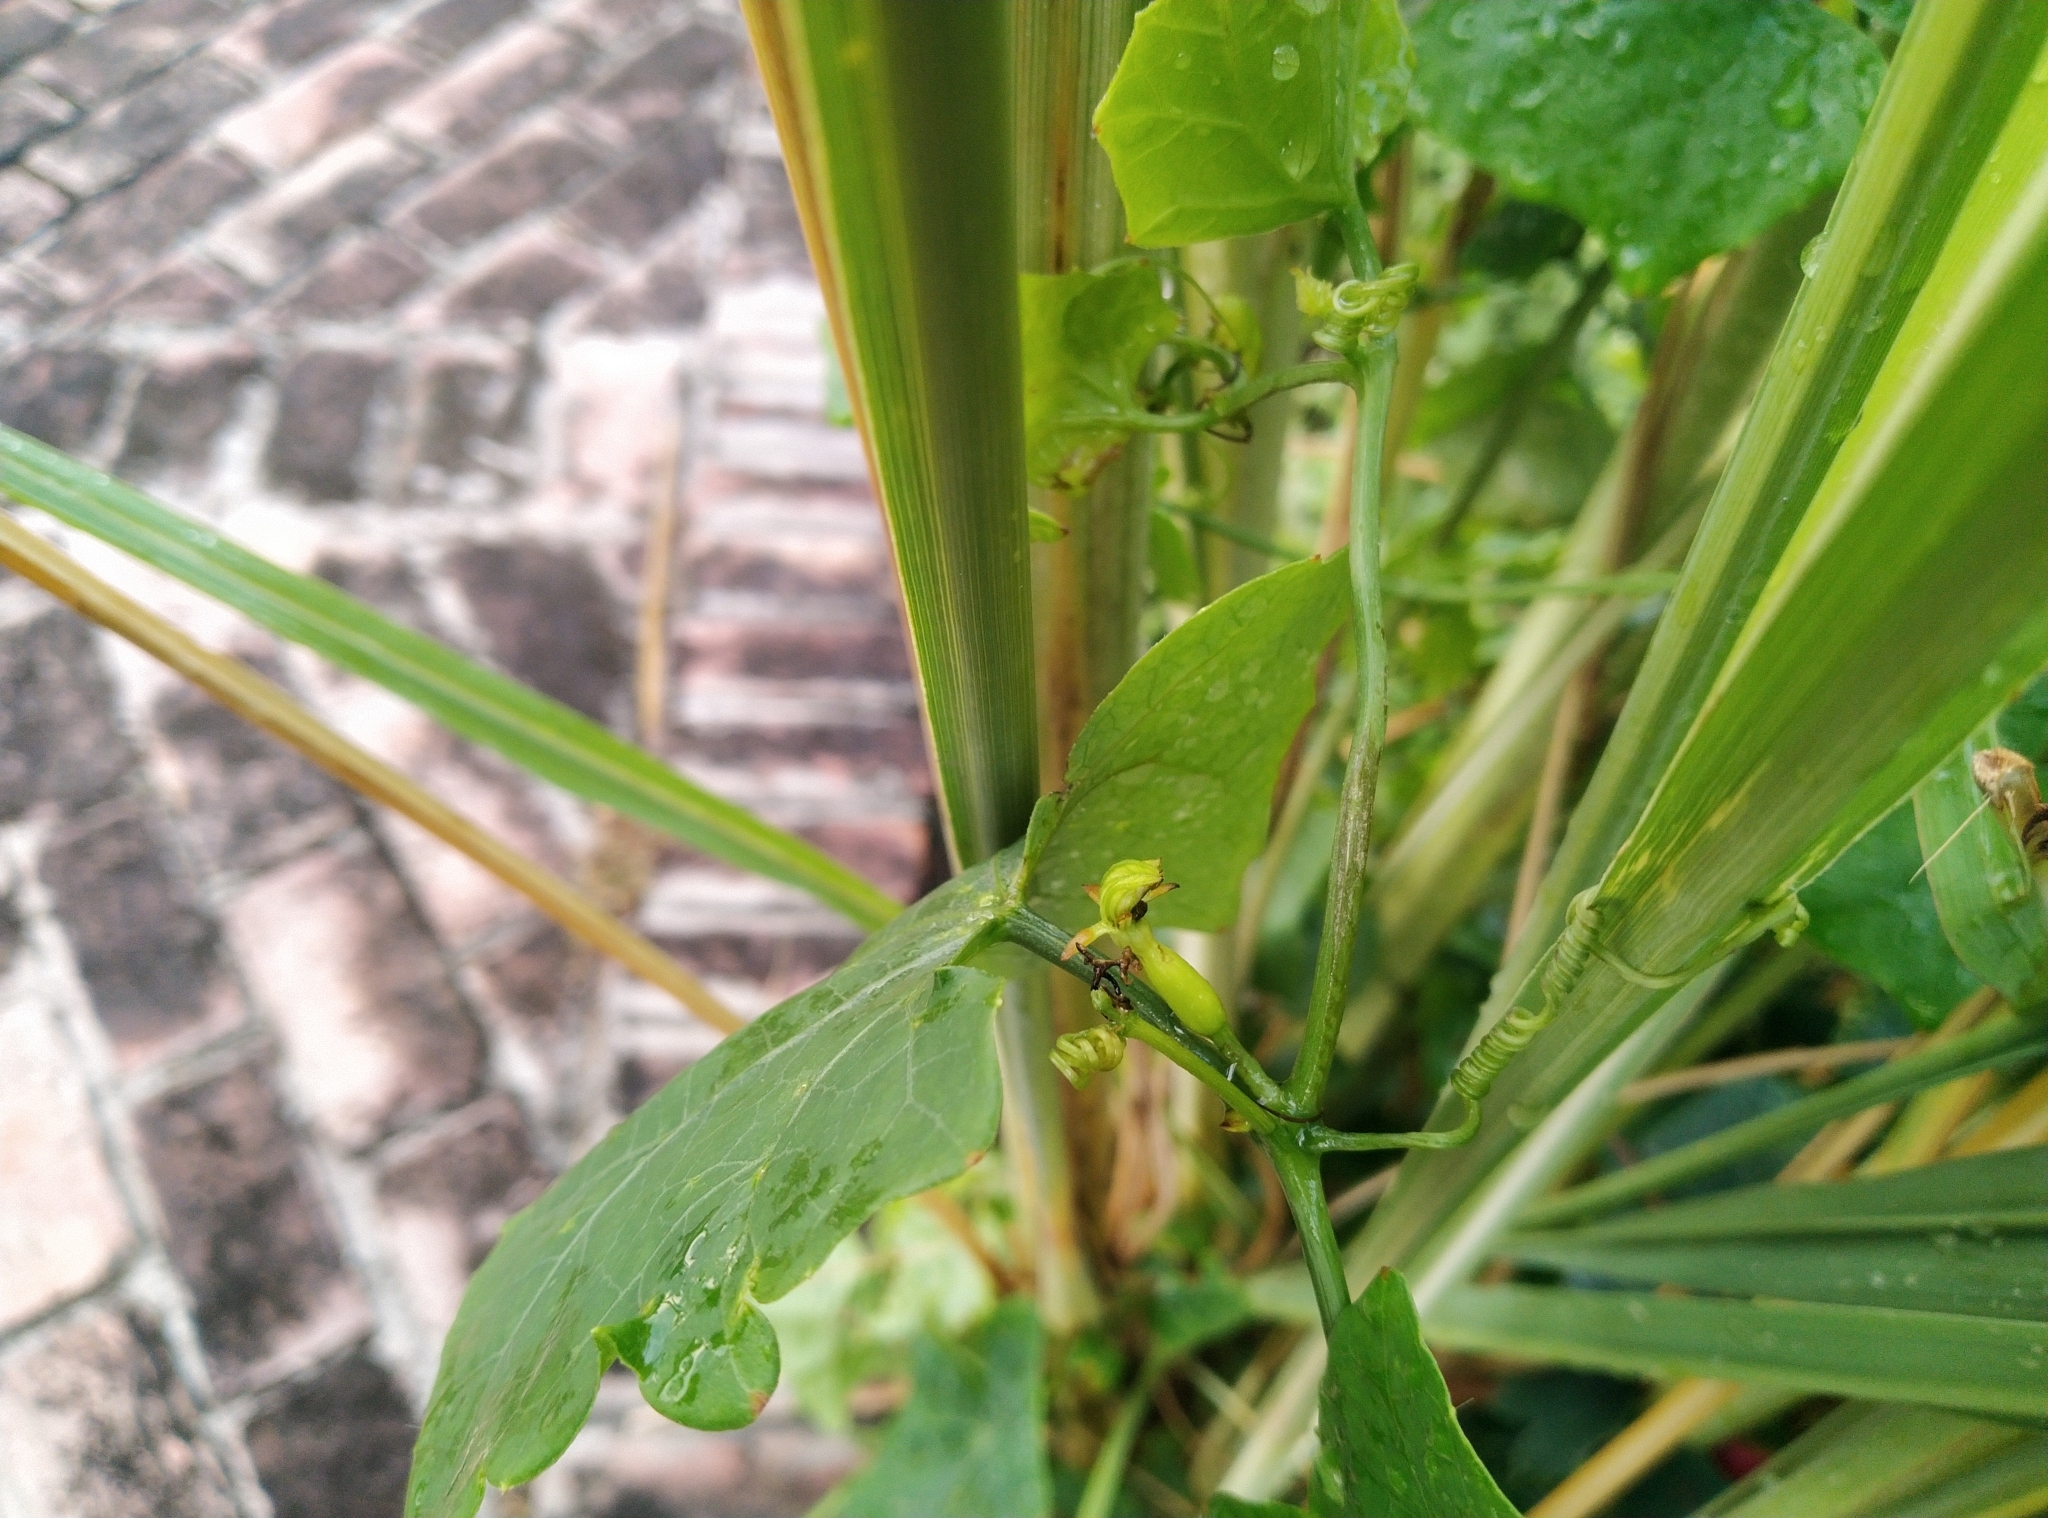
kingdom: Plantae
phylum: Tracheophyta
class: Magnoliopsida
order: Cucurbitales
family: Cucurbitaceae
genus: Coccinia
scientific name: Coccinia grandis
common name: Ivy gourd
